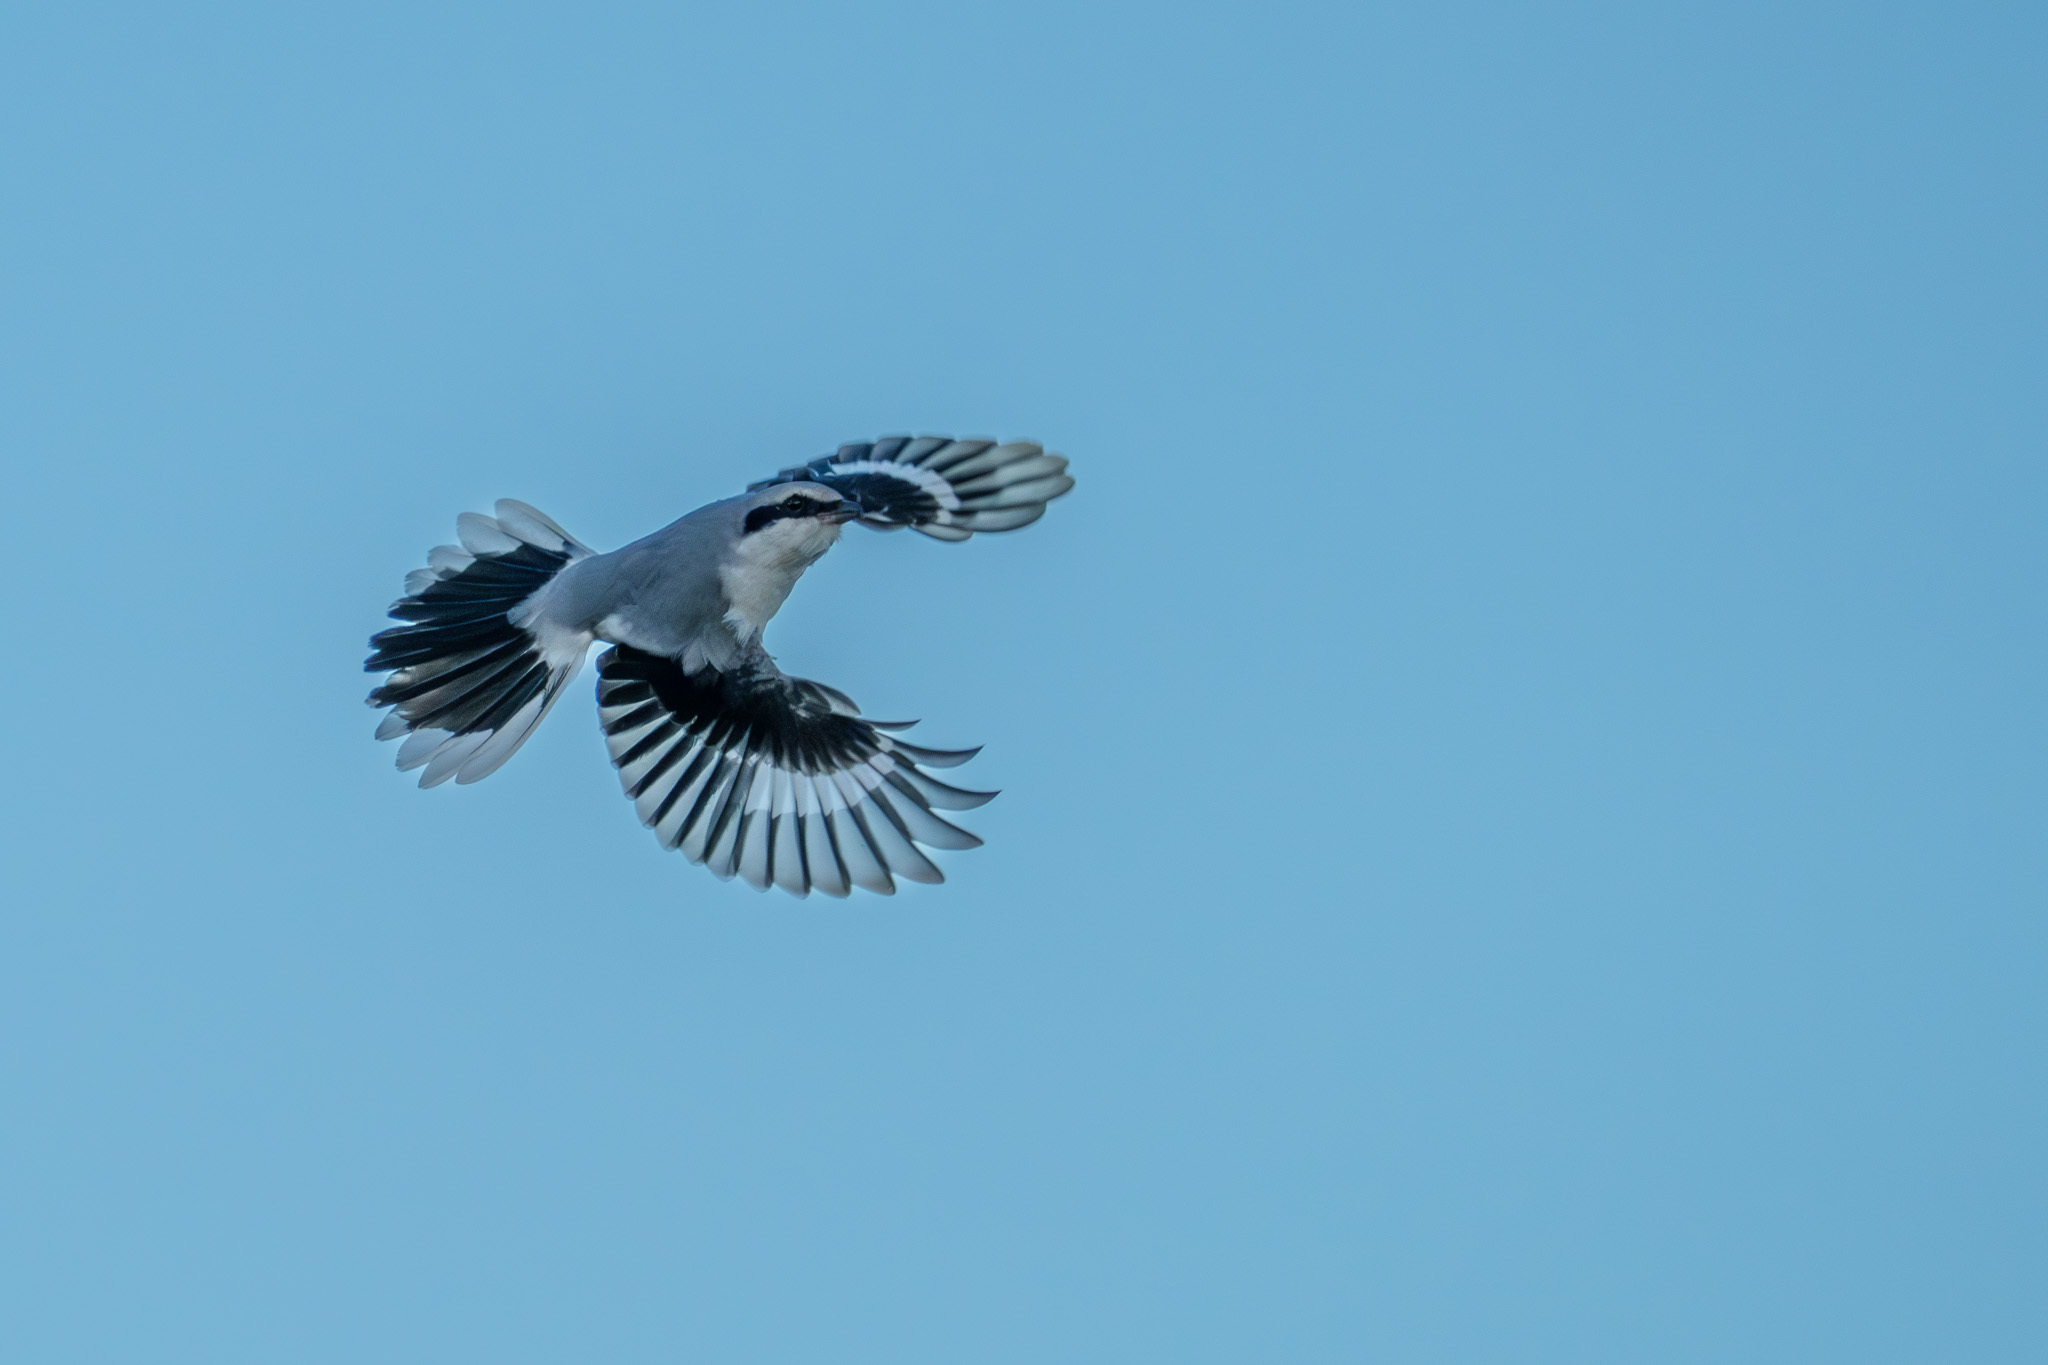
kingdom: Animalia
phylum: Chordata
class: Aves
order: Passeriformes
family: Laniidae
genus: Lanius
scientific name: Lanius excubitor
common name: Great grey shrike
